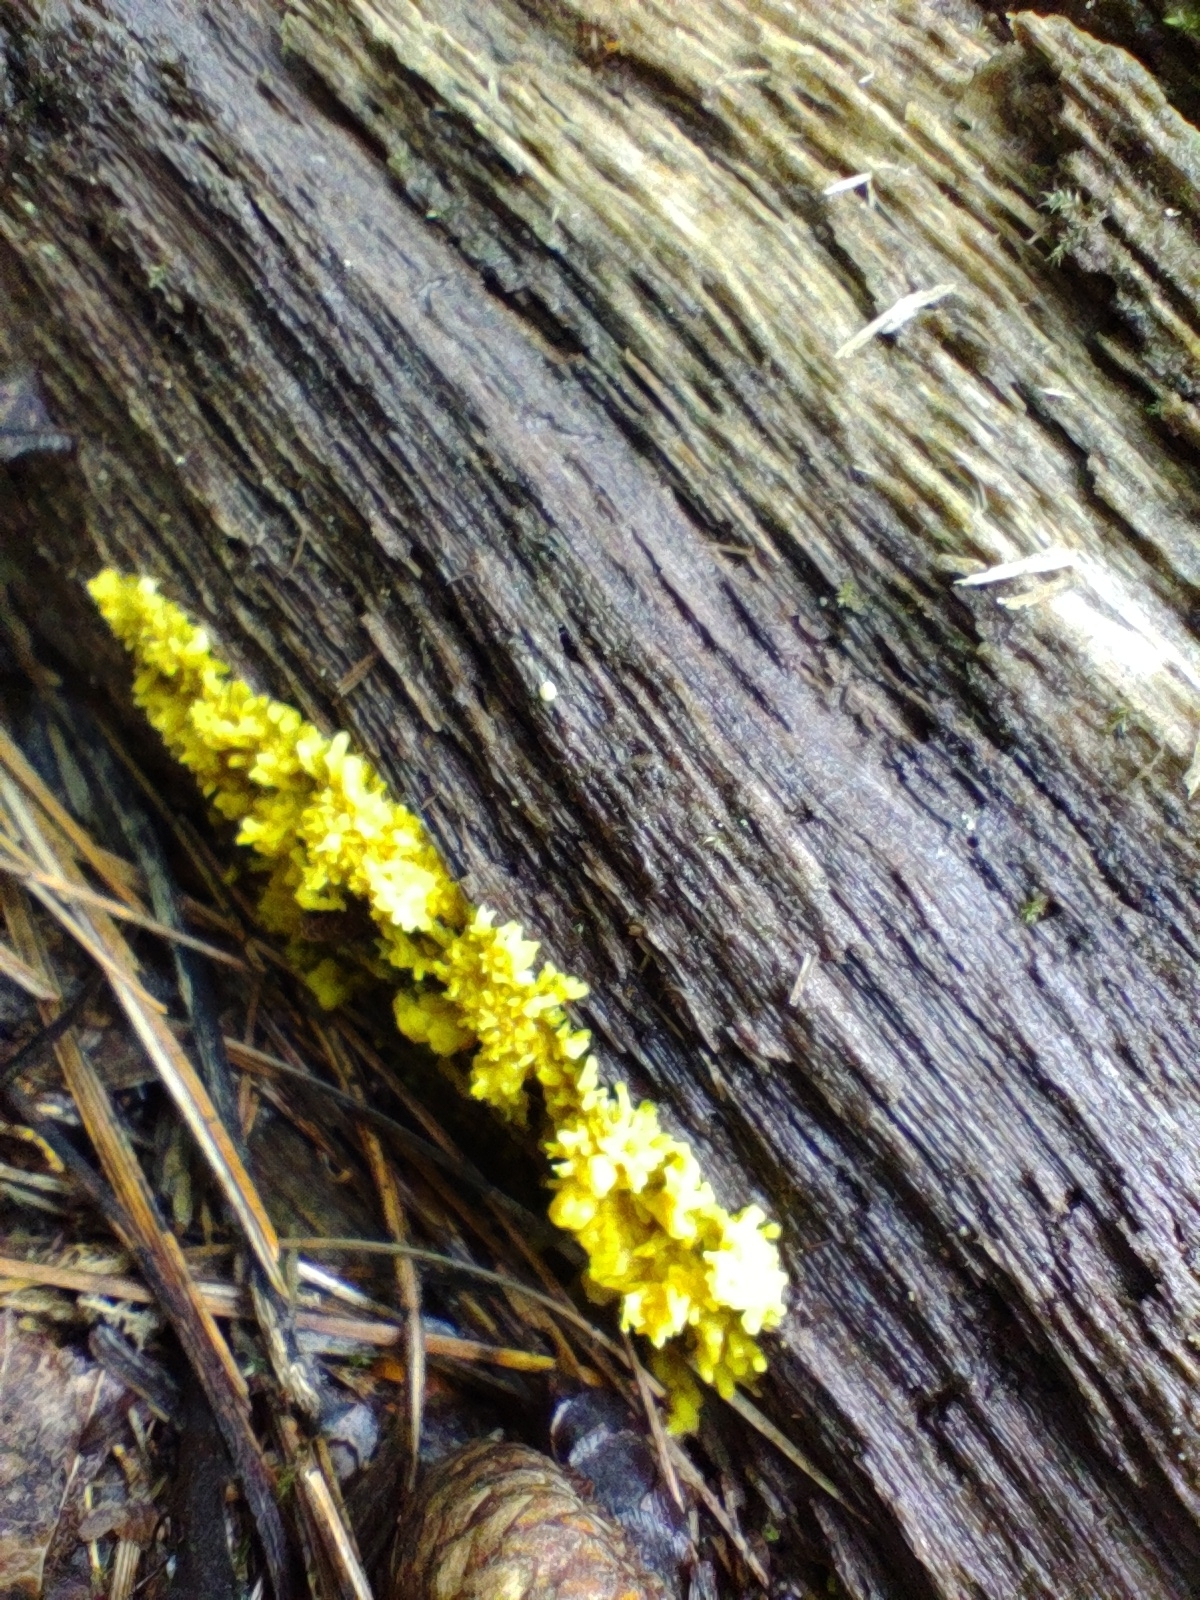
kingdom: Protozoa
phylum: Mycetozoa
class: Myxomycetes
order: Physarales
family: Physaraceae
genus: Fuligo
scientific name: Fuligo septica
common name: Dog vomit slime mold
